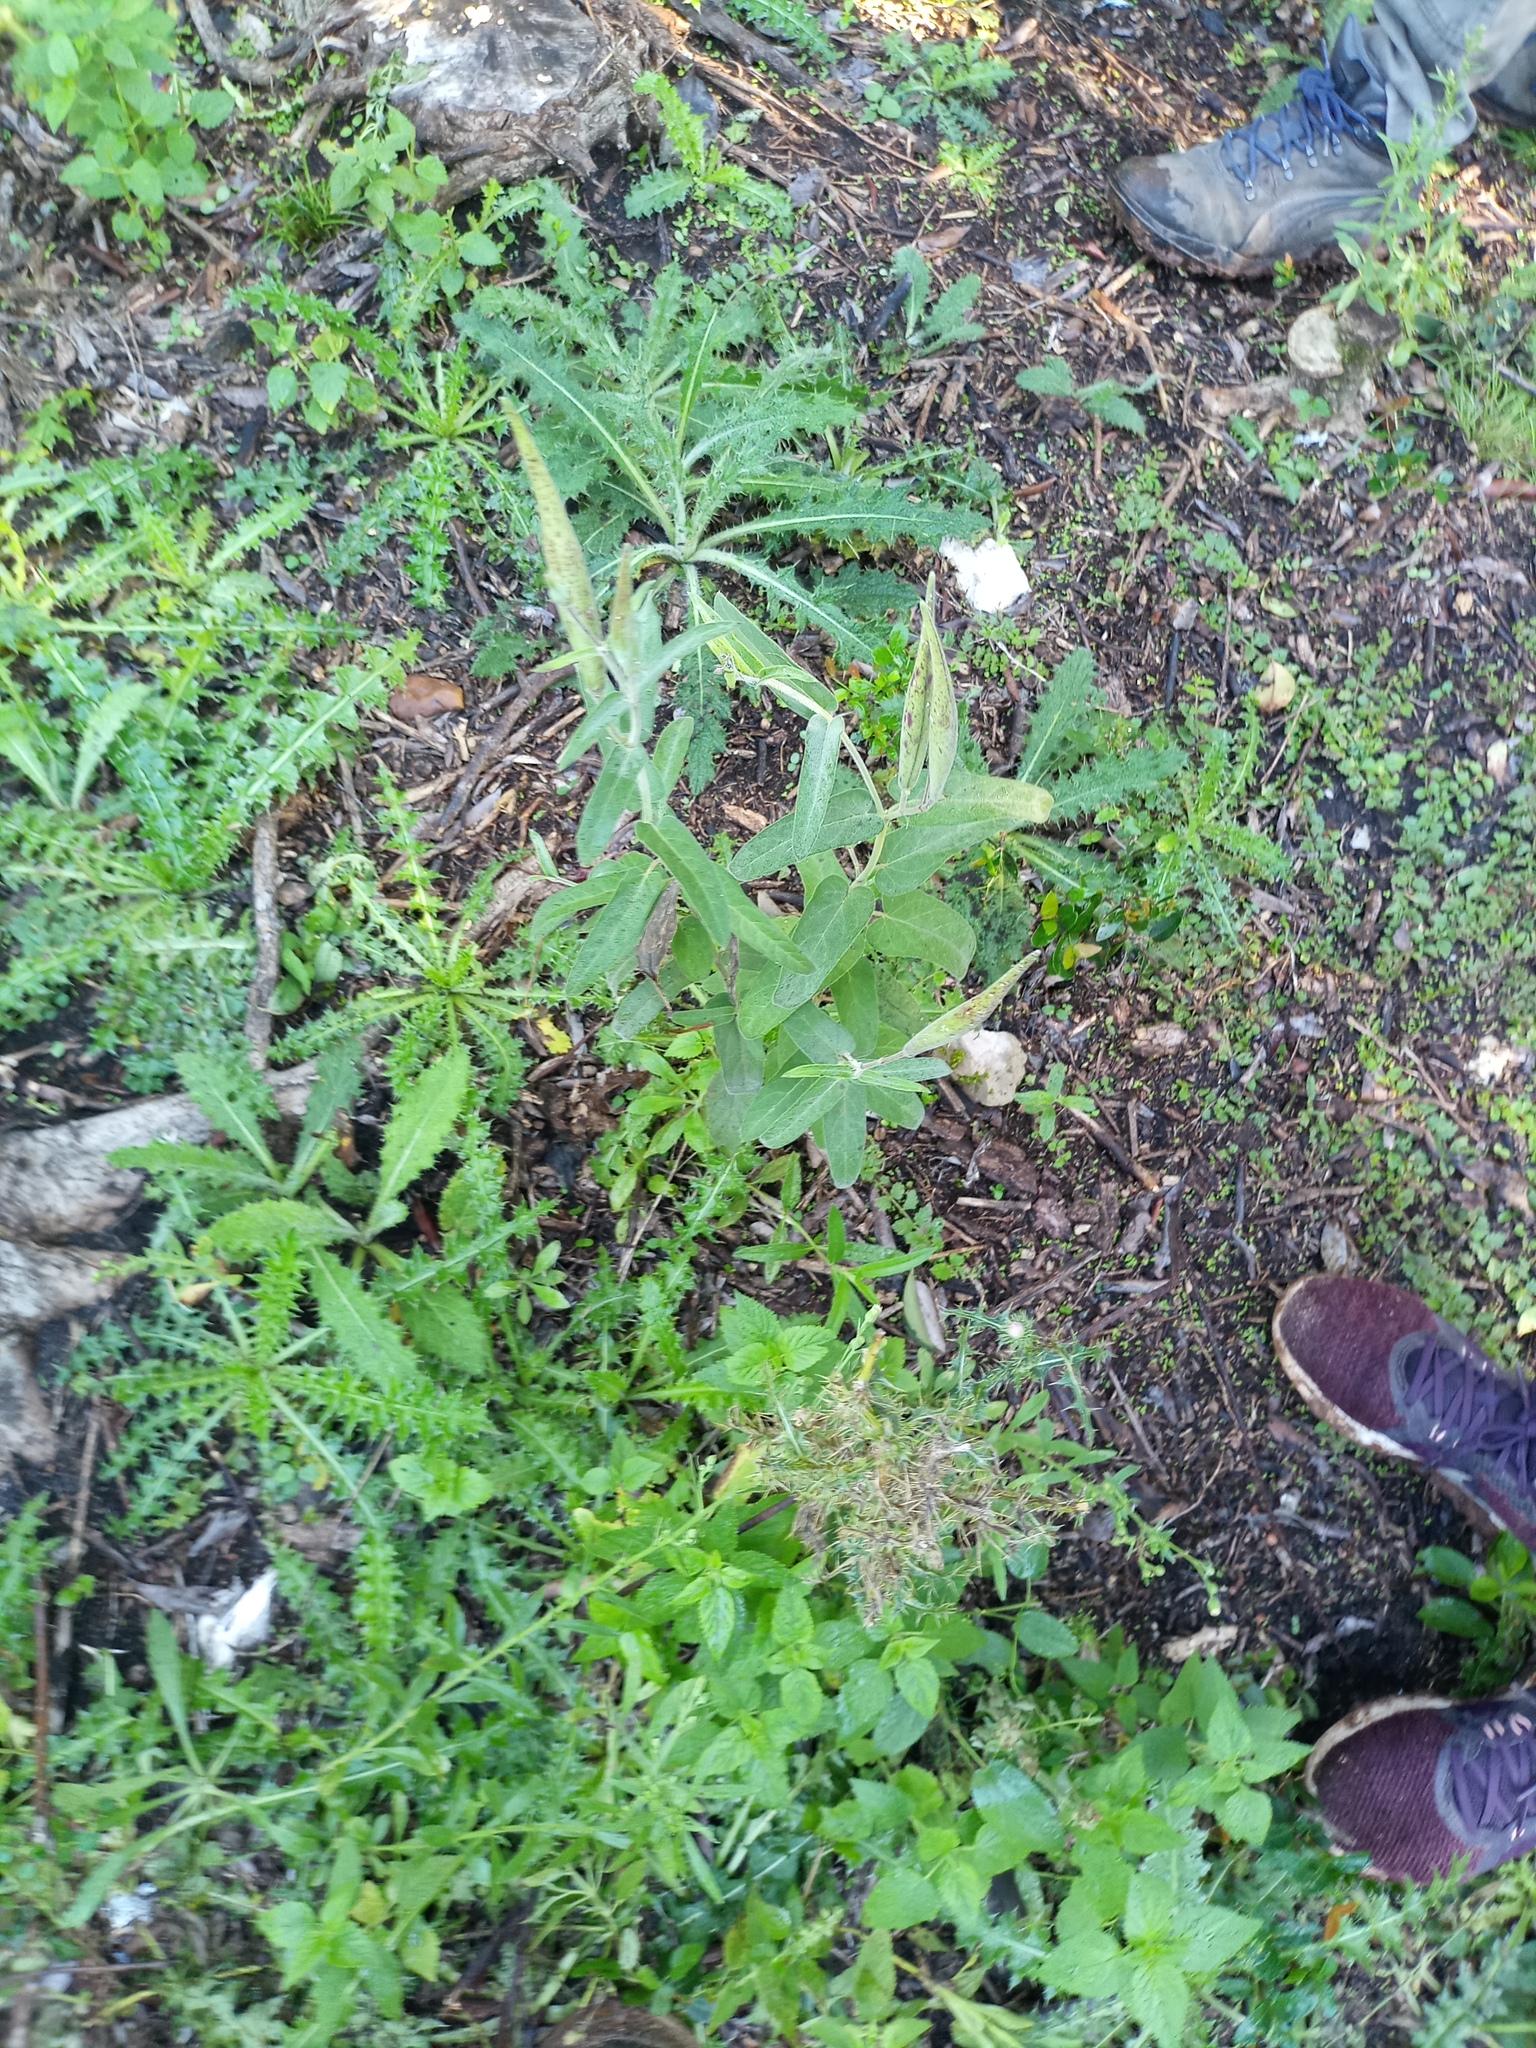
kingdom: Plantae
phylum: Tracheophyta
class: Magnoliopsida
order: Gentianales
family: Apocynaceae
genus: Oxypetalum
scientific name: Oxypetalum solanoides
